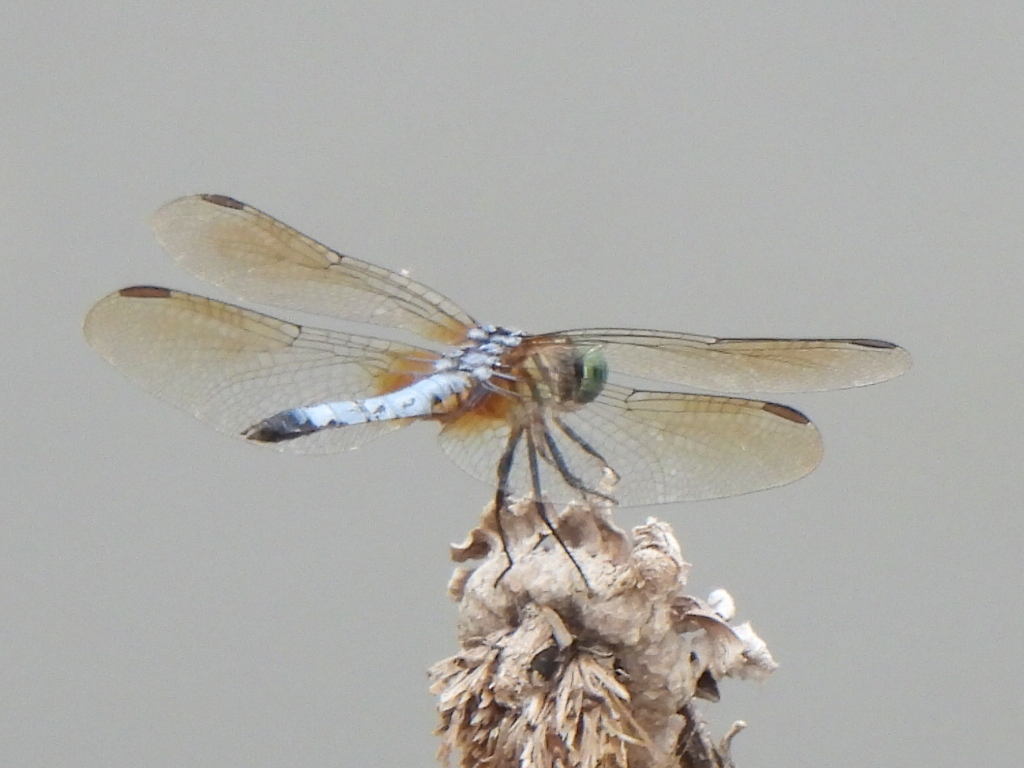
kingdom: Animalia
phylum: Arthropoda
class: Insecta
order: Odonata
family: Libellulidae
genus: Pachydiplax
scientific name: Pachydiplax longipennis
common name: Blue dasher
